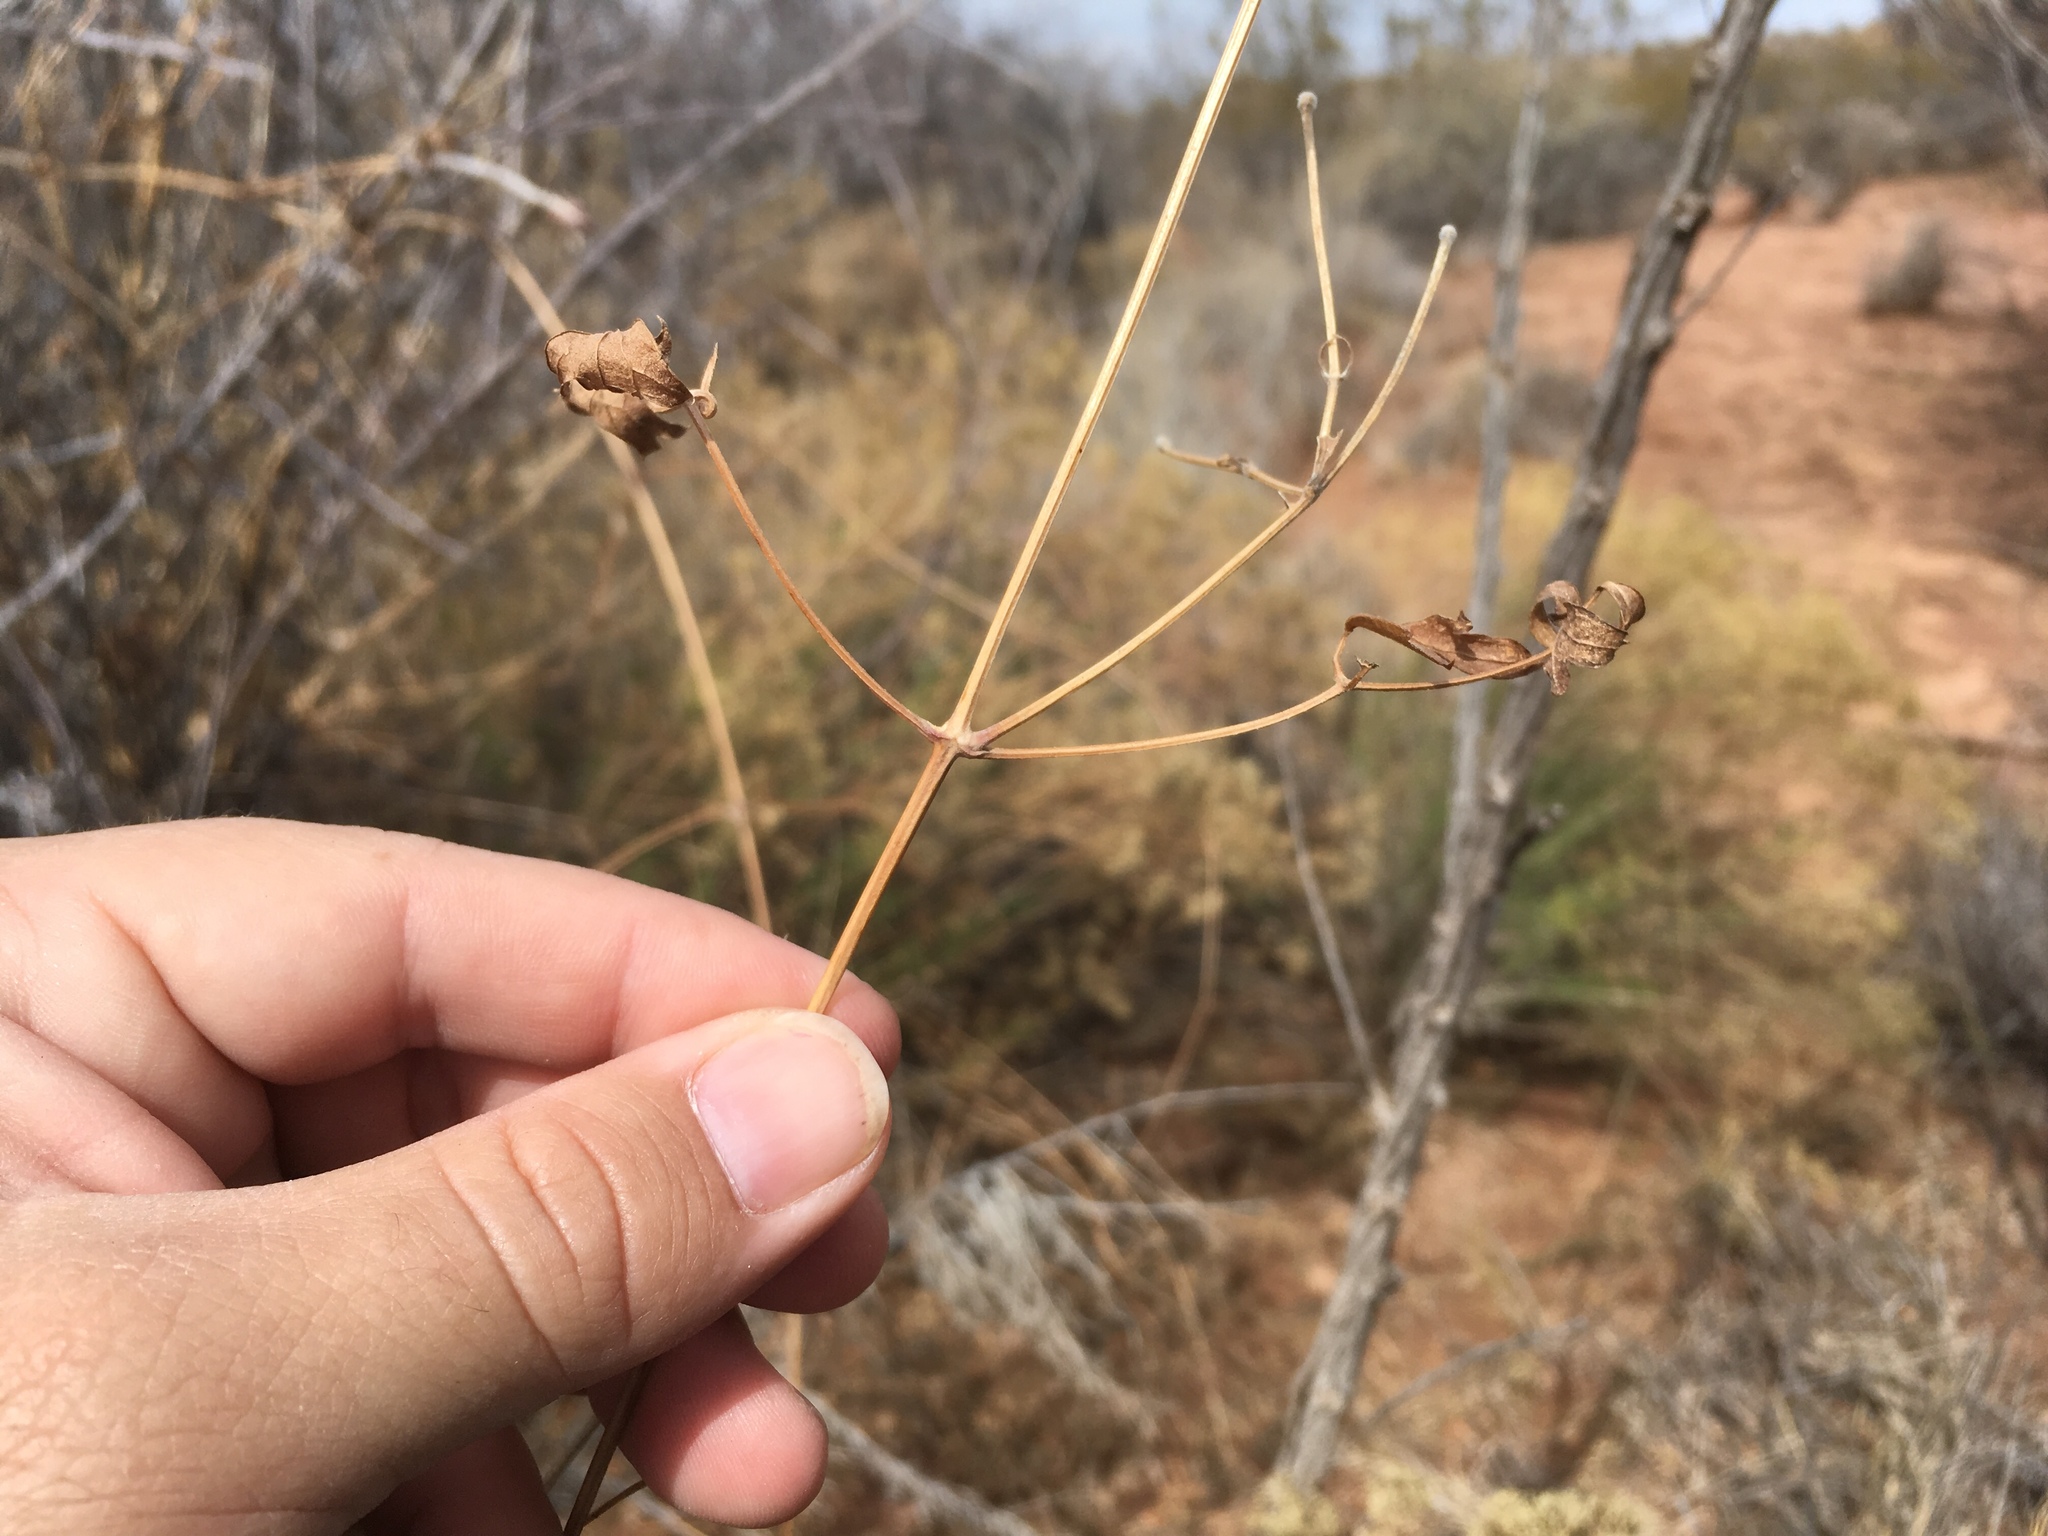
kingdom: Plantae
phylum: Tracheophyta
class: Magnoliopsida
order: Ranunculales
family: Ranunculaceae
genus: Clematis
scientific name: Clematis drummondii
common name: Texas virgin's bower
